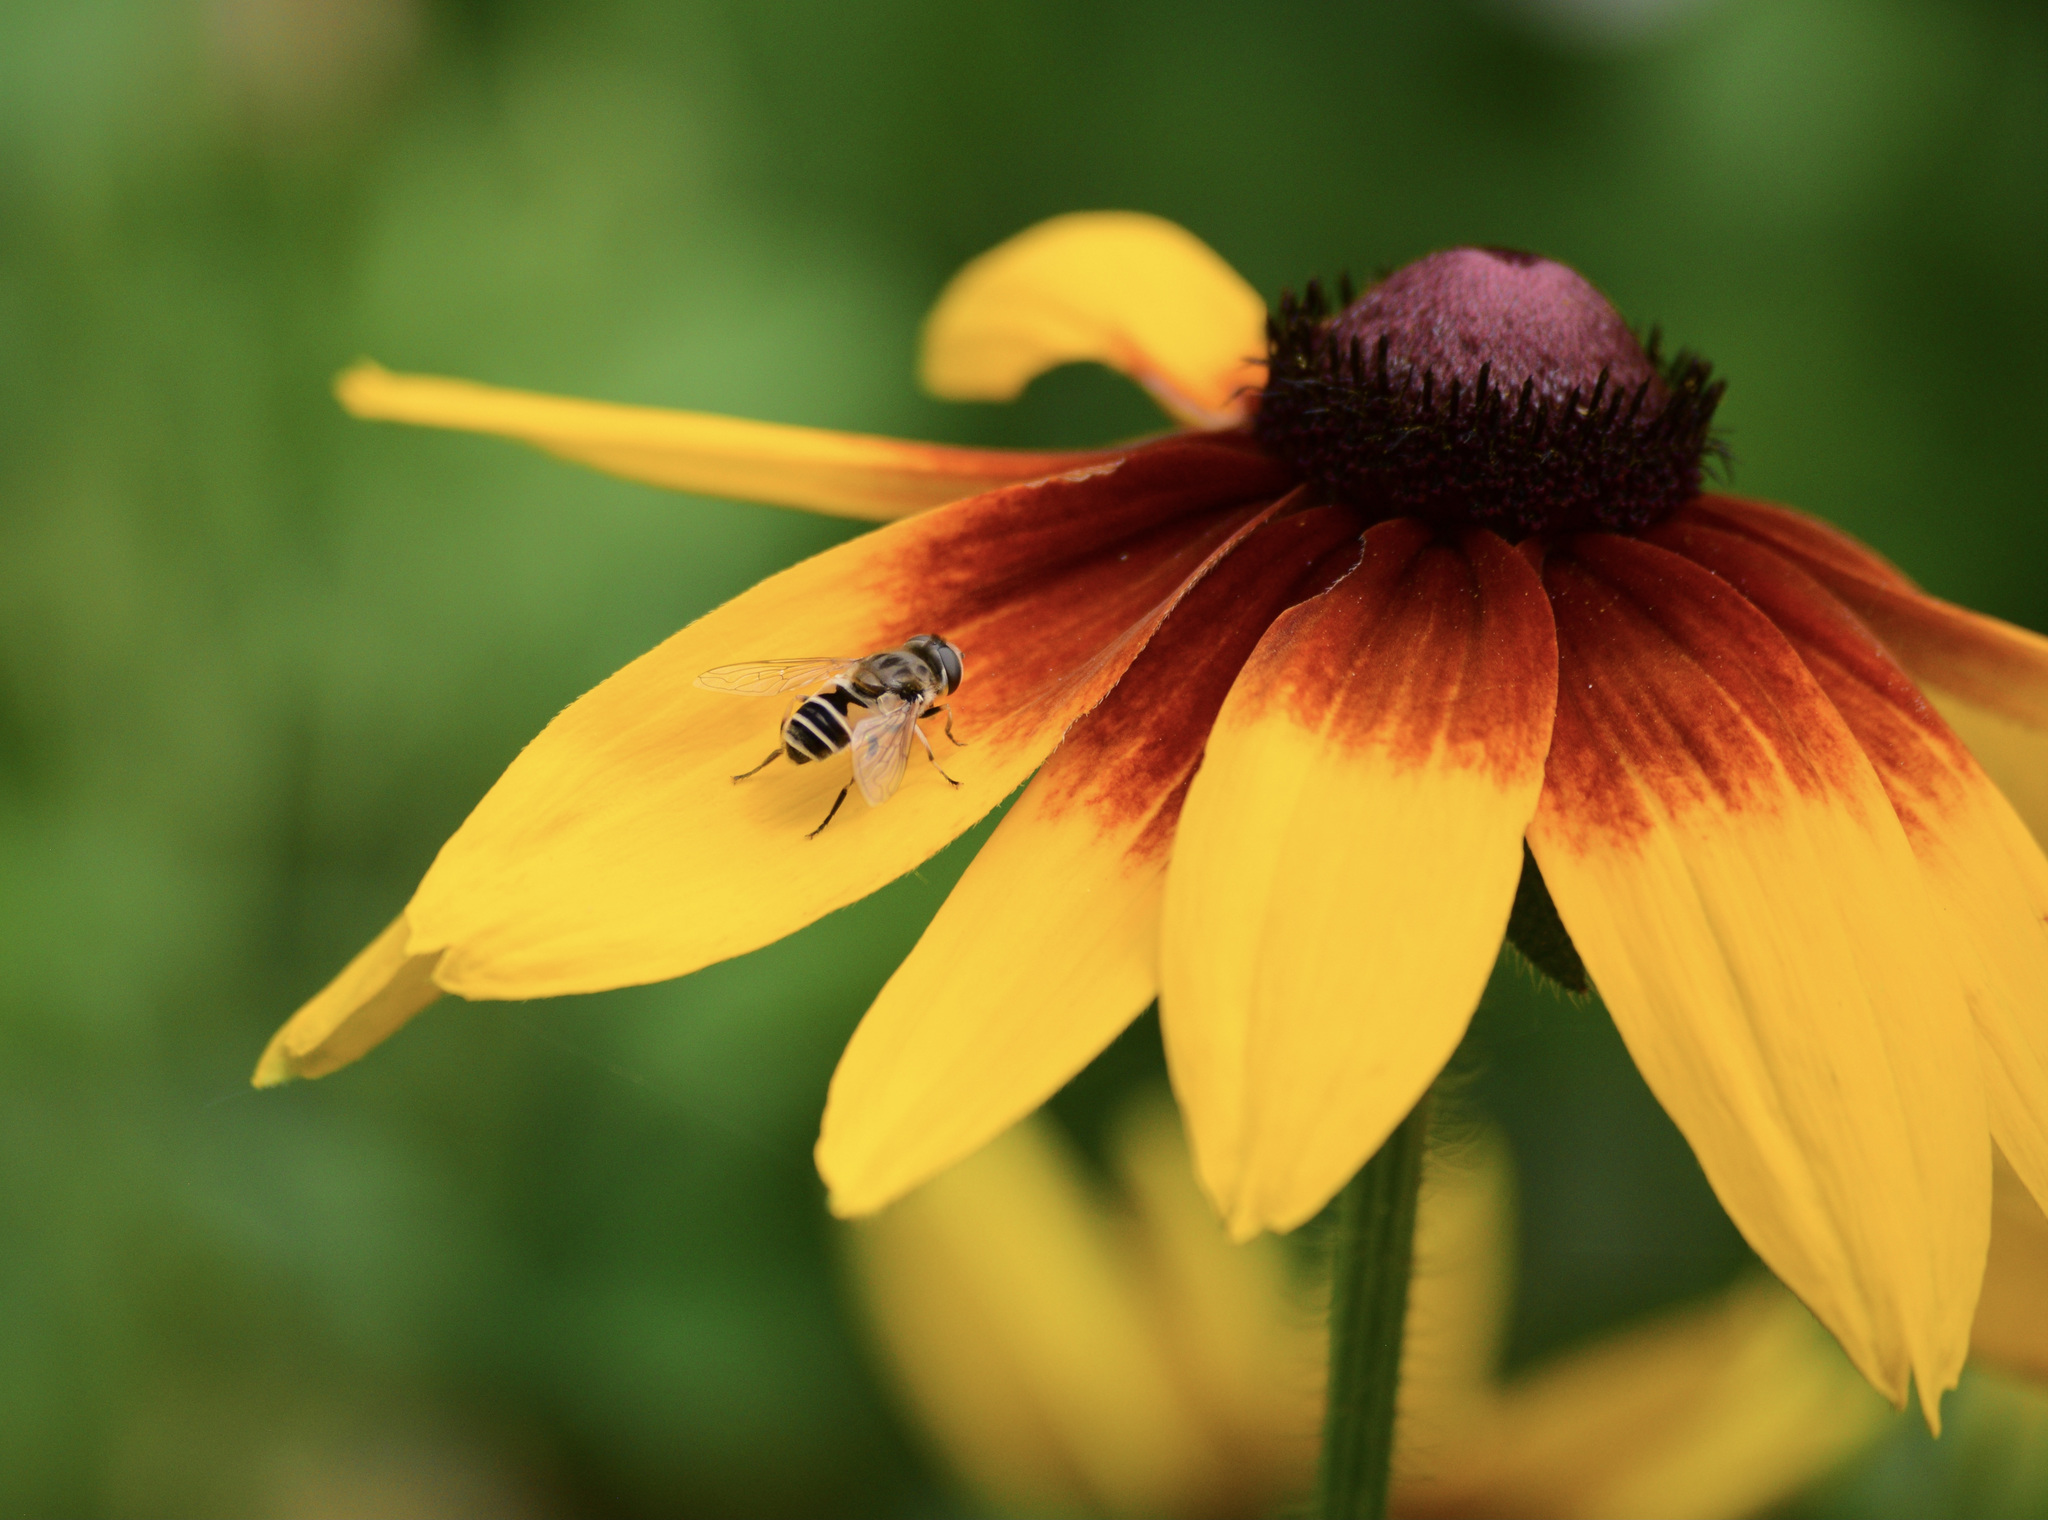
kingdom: Animalia
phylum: Arthropoda
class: Insecta
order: Diptera
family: Syrphidae
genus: Eristalis
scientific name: Eristalis arbustorum
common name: Hover fly
